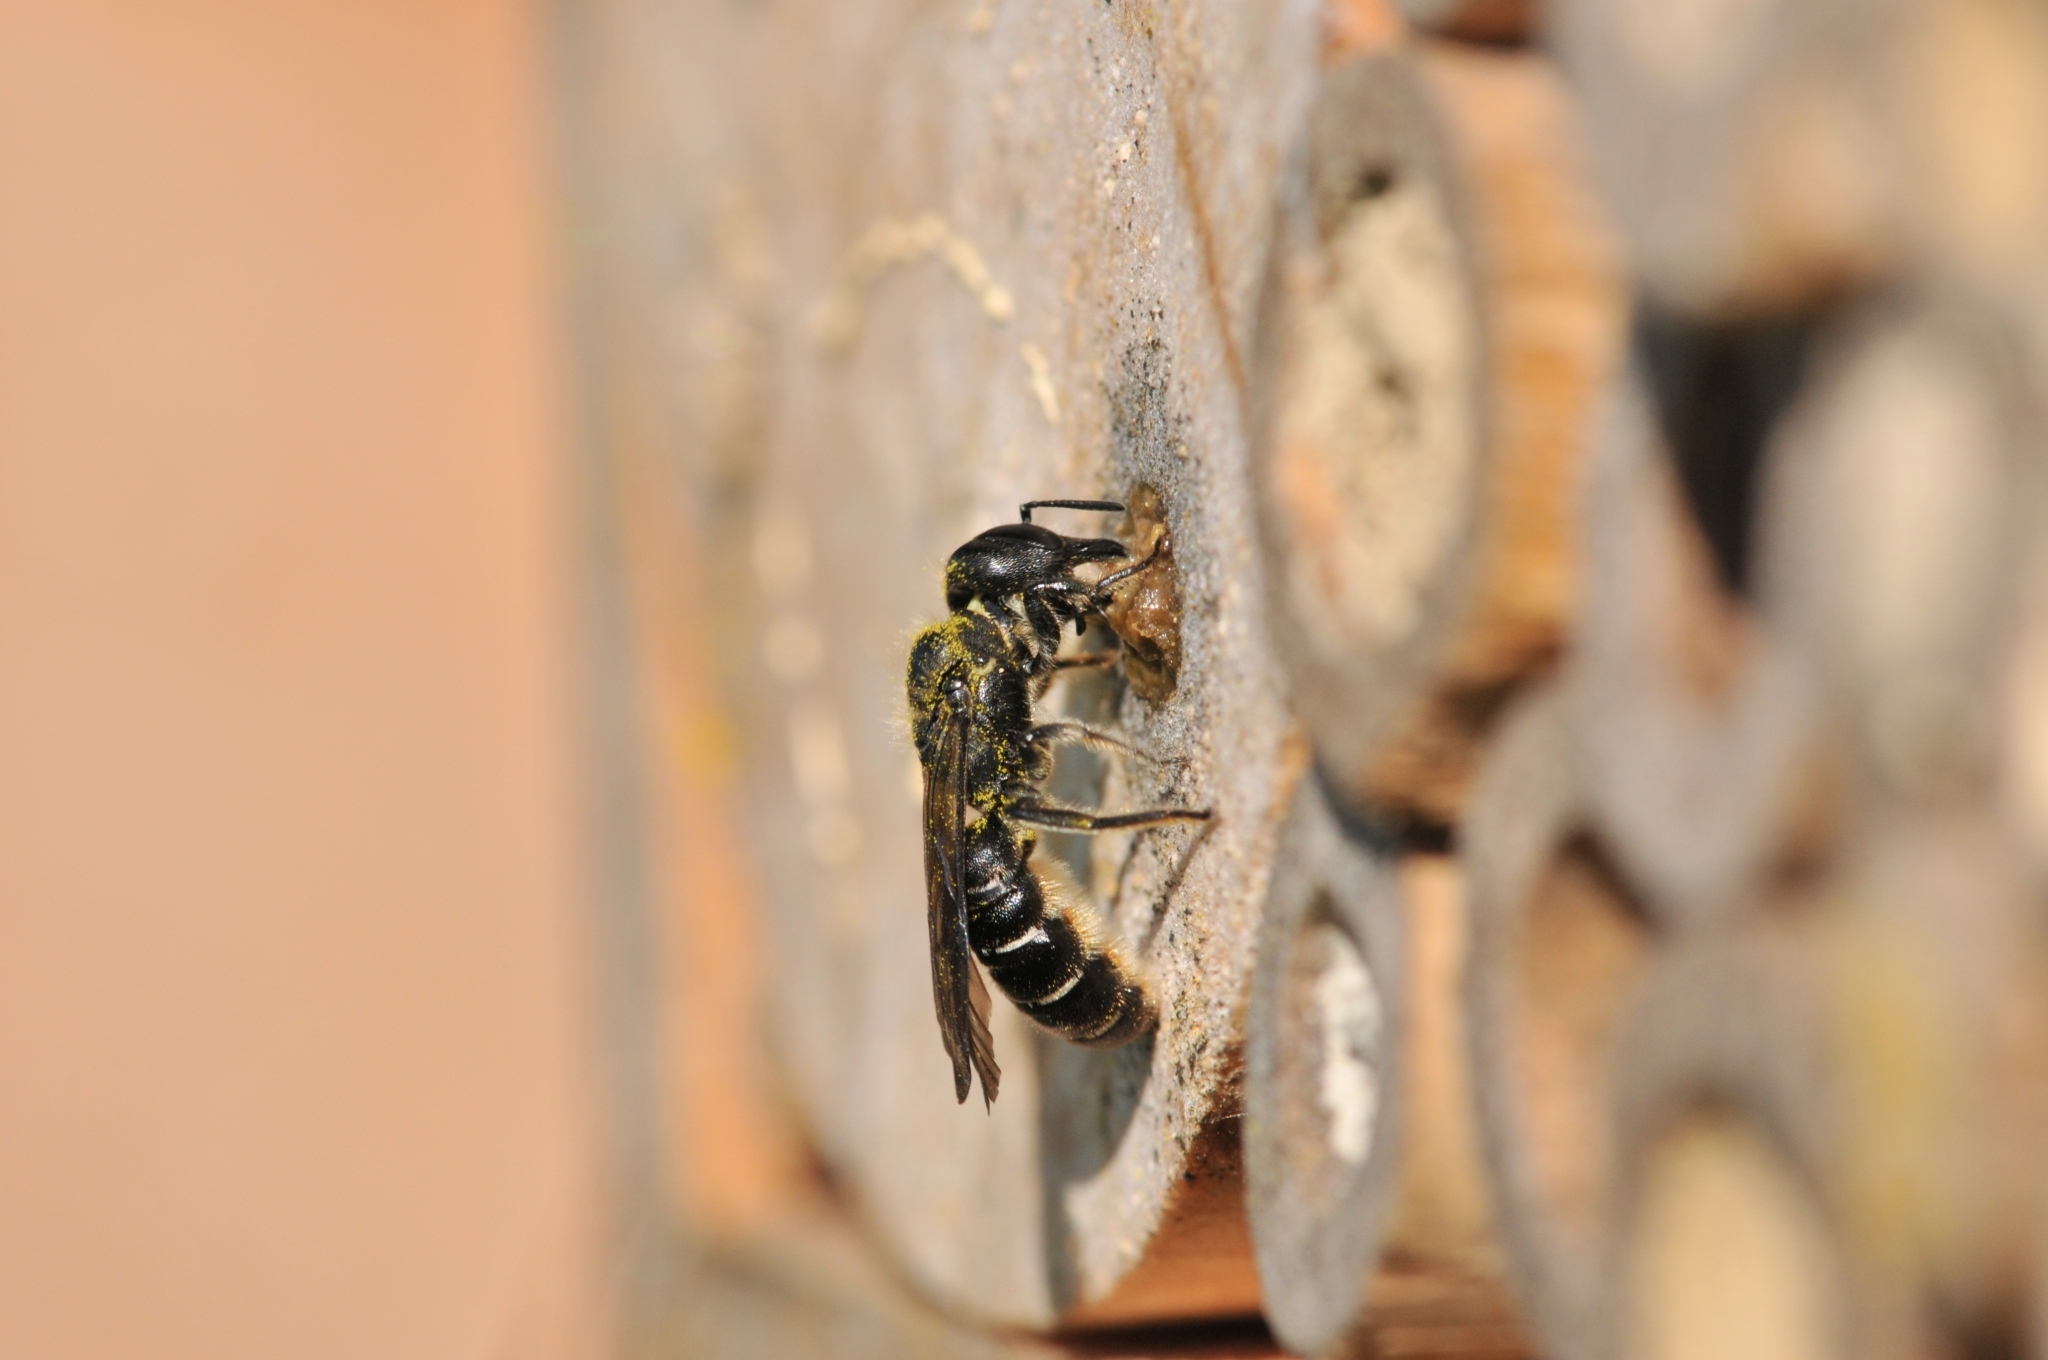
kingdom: Animalia
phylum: Arthropoda
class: Insecta
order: Hymenoptera
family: Megachilidae
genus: Chelostoma
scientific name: Chelostoma florisomne
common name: Sleepy carpenter bee
